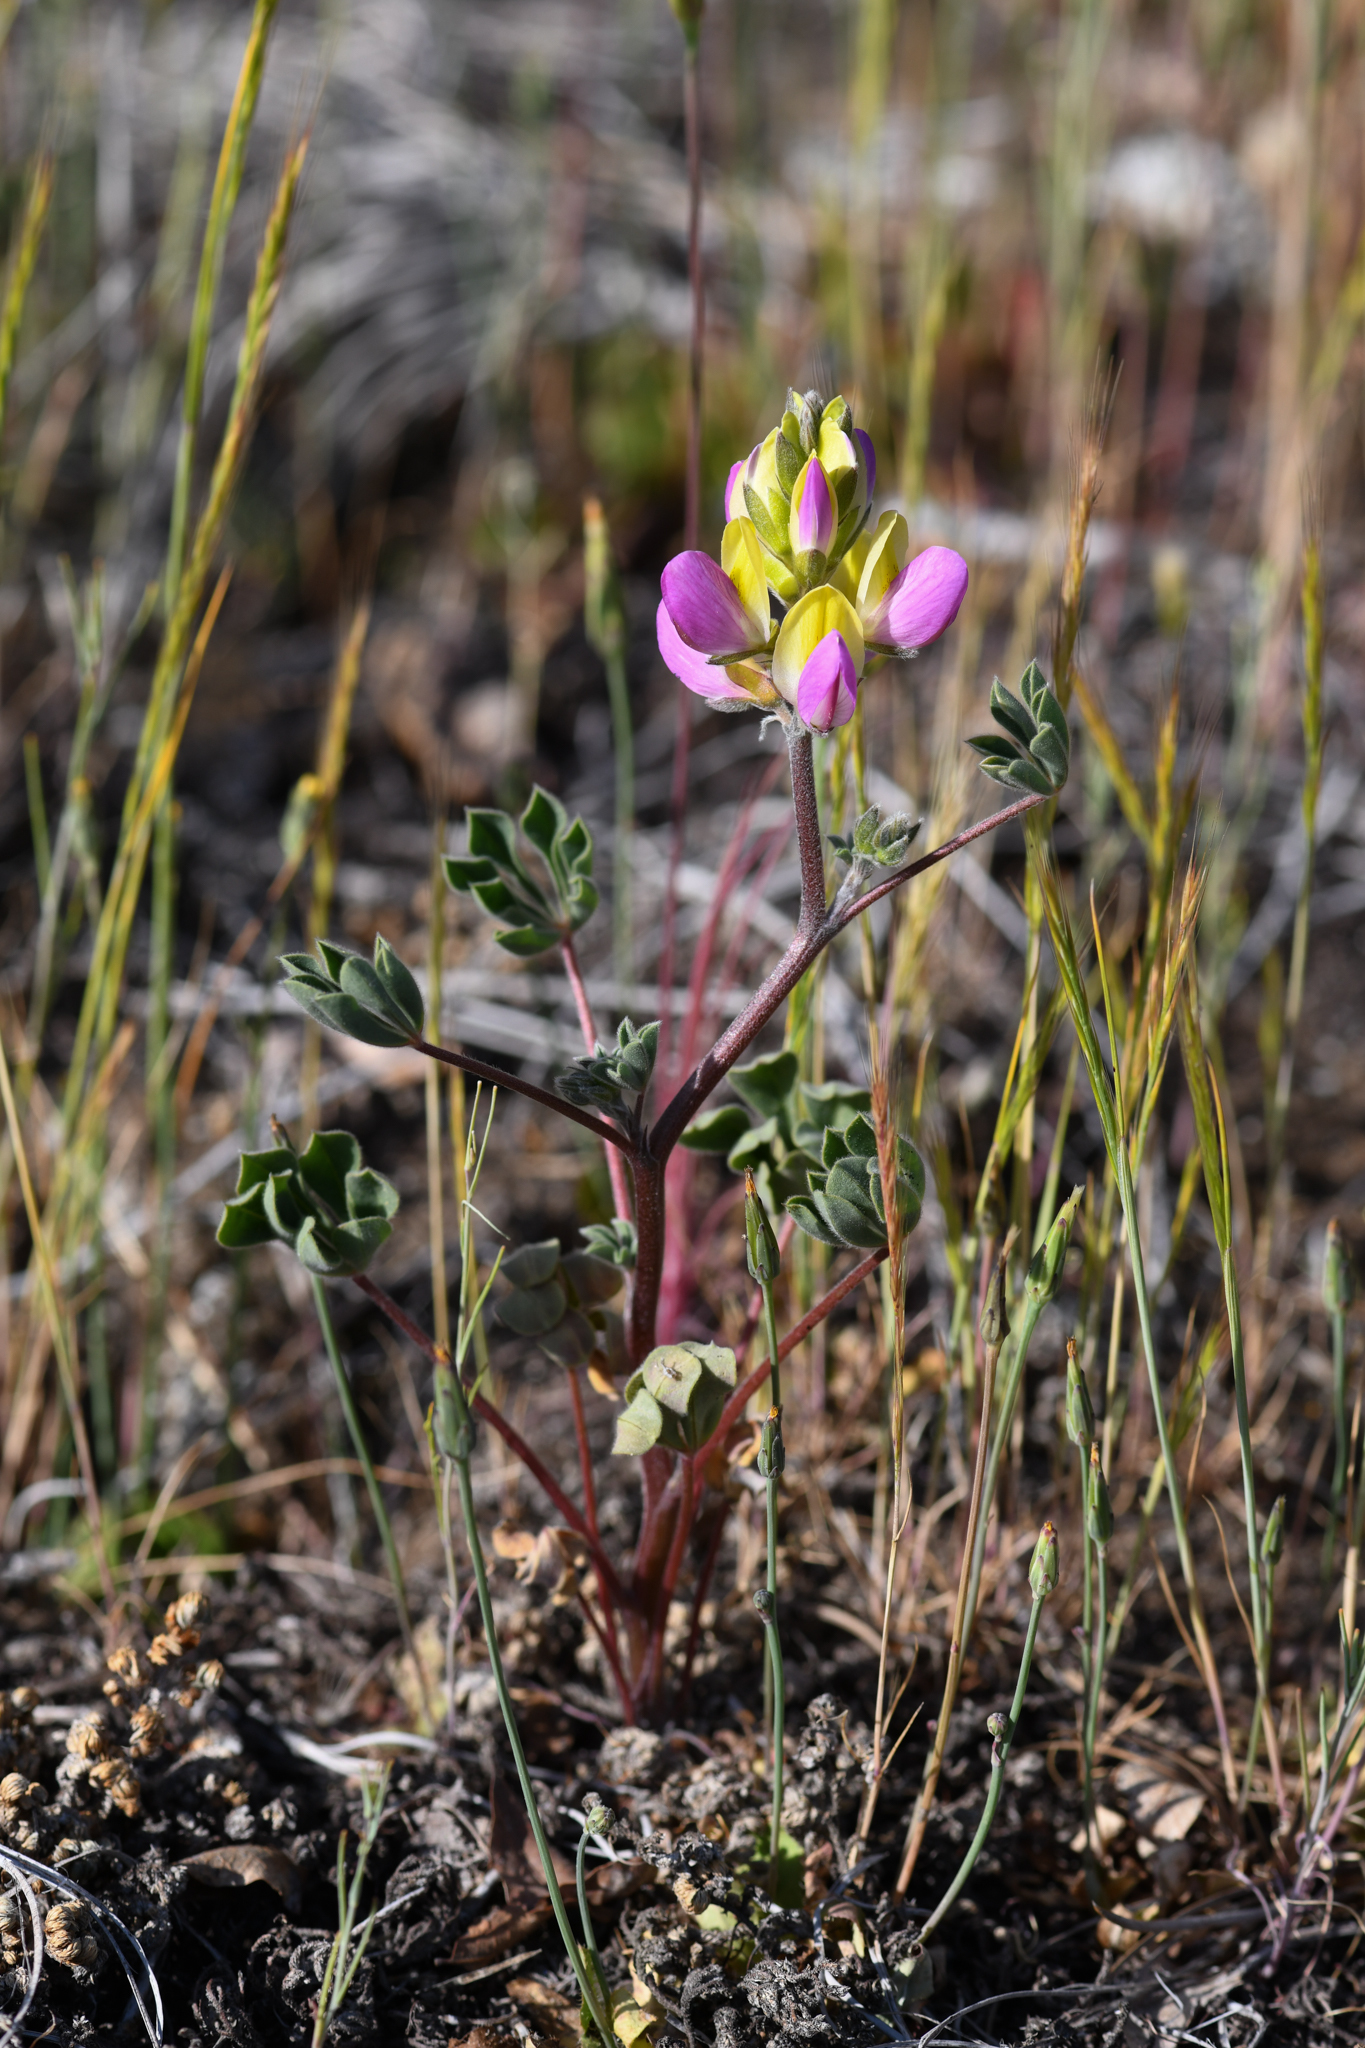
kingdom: Plantae
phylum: Tracheophyta
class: Magnoliopsida
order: Fabales
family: Fabaceae
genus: Lupinus
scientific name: Lupinus stiversii
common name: Harlequin lupine
